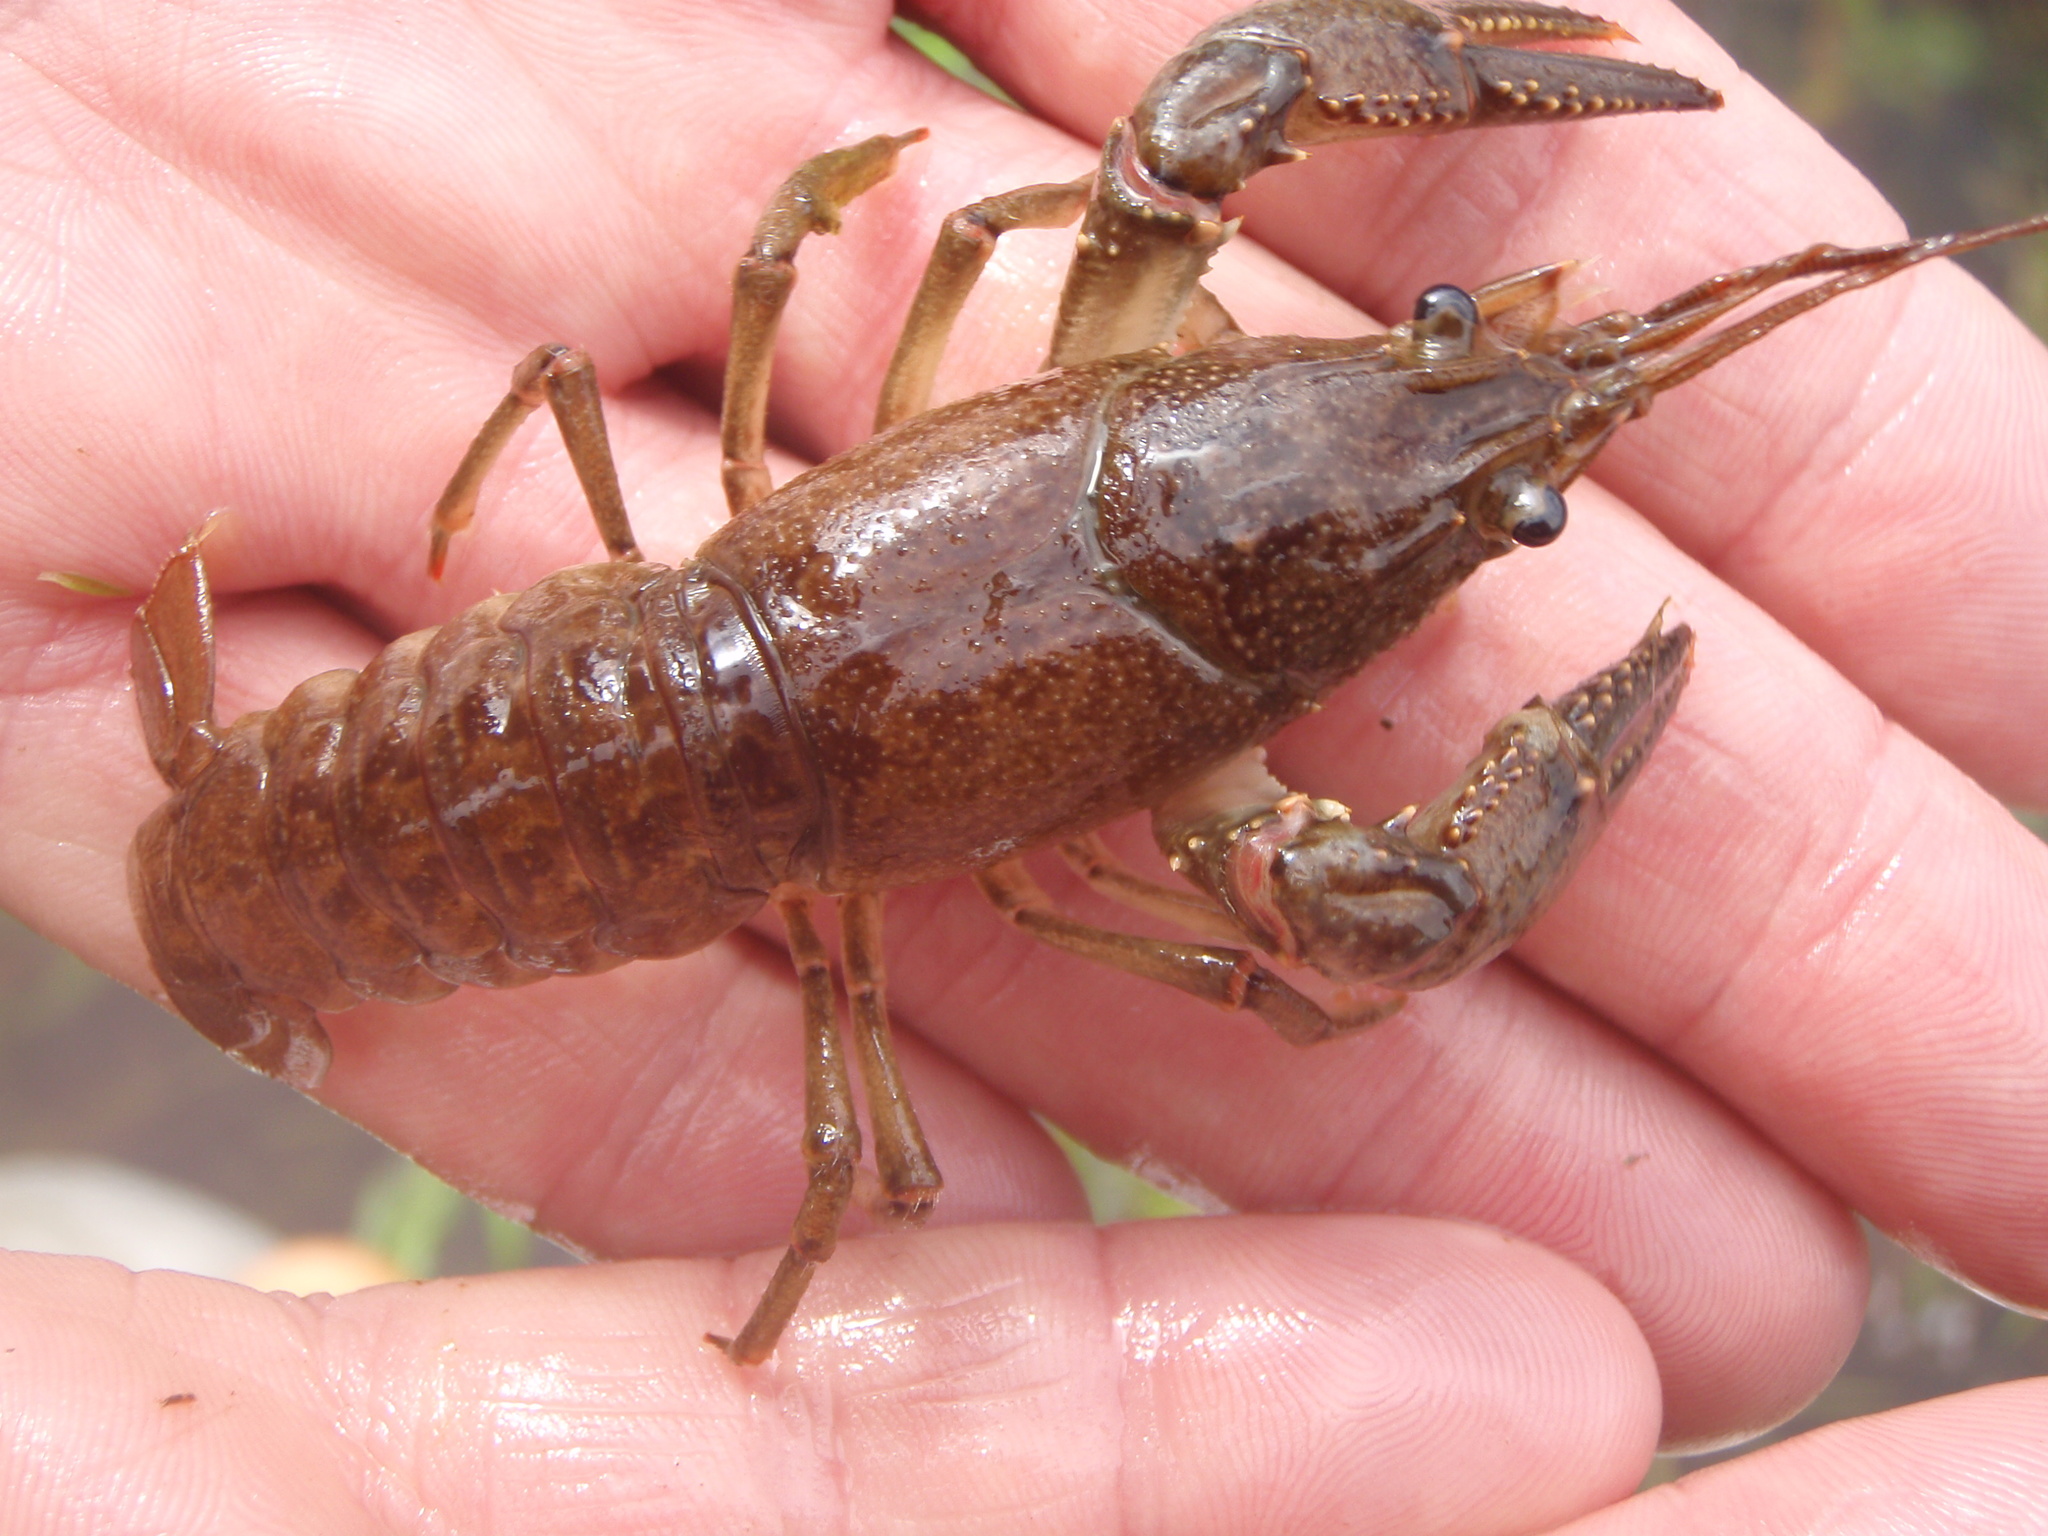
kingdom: Animalia
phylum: Arthropoda
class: Malacostraca
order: Decapoda
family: Cambaridae
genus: Faxonius
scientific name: Faxonius virilis
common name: Virile crayfish
